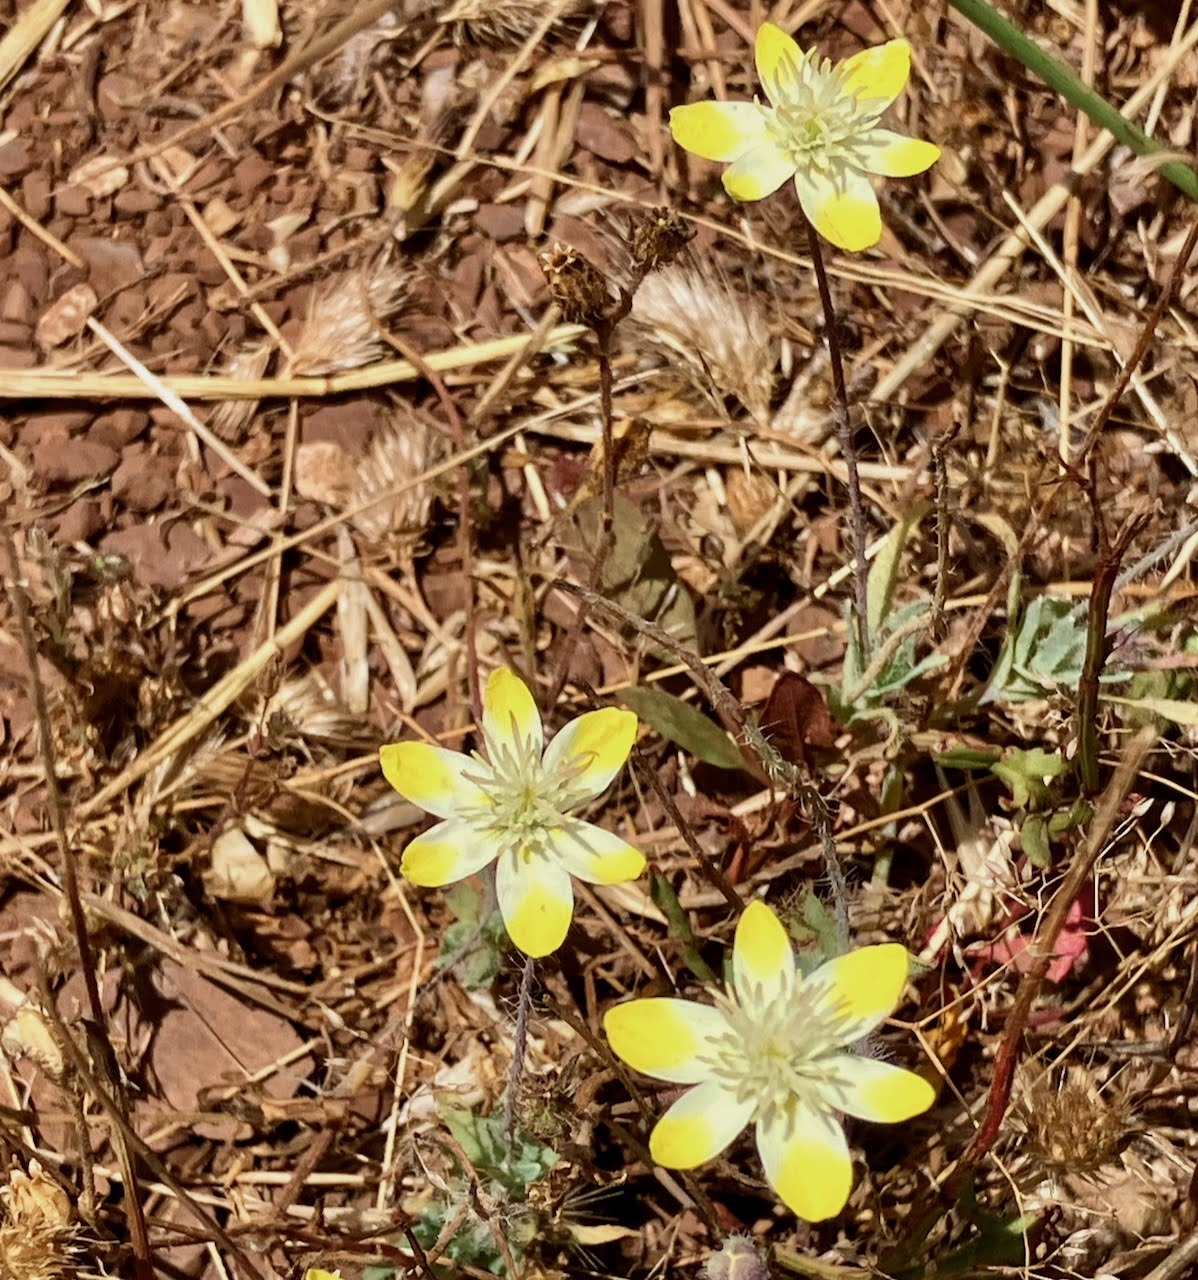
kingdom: Plantae
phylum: Tracheophyta
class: Magnoliopsida
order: Ranunculales
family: Papaveraceae
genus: Platystemon
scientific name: Platystemon californicus
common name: Cream-cups
